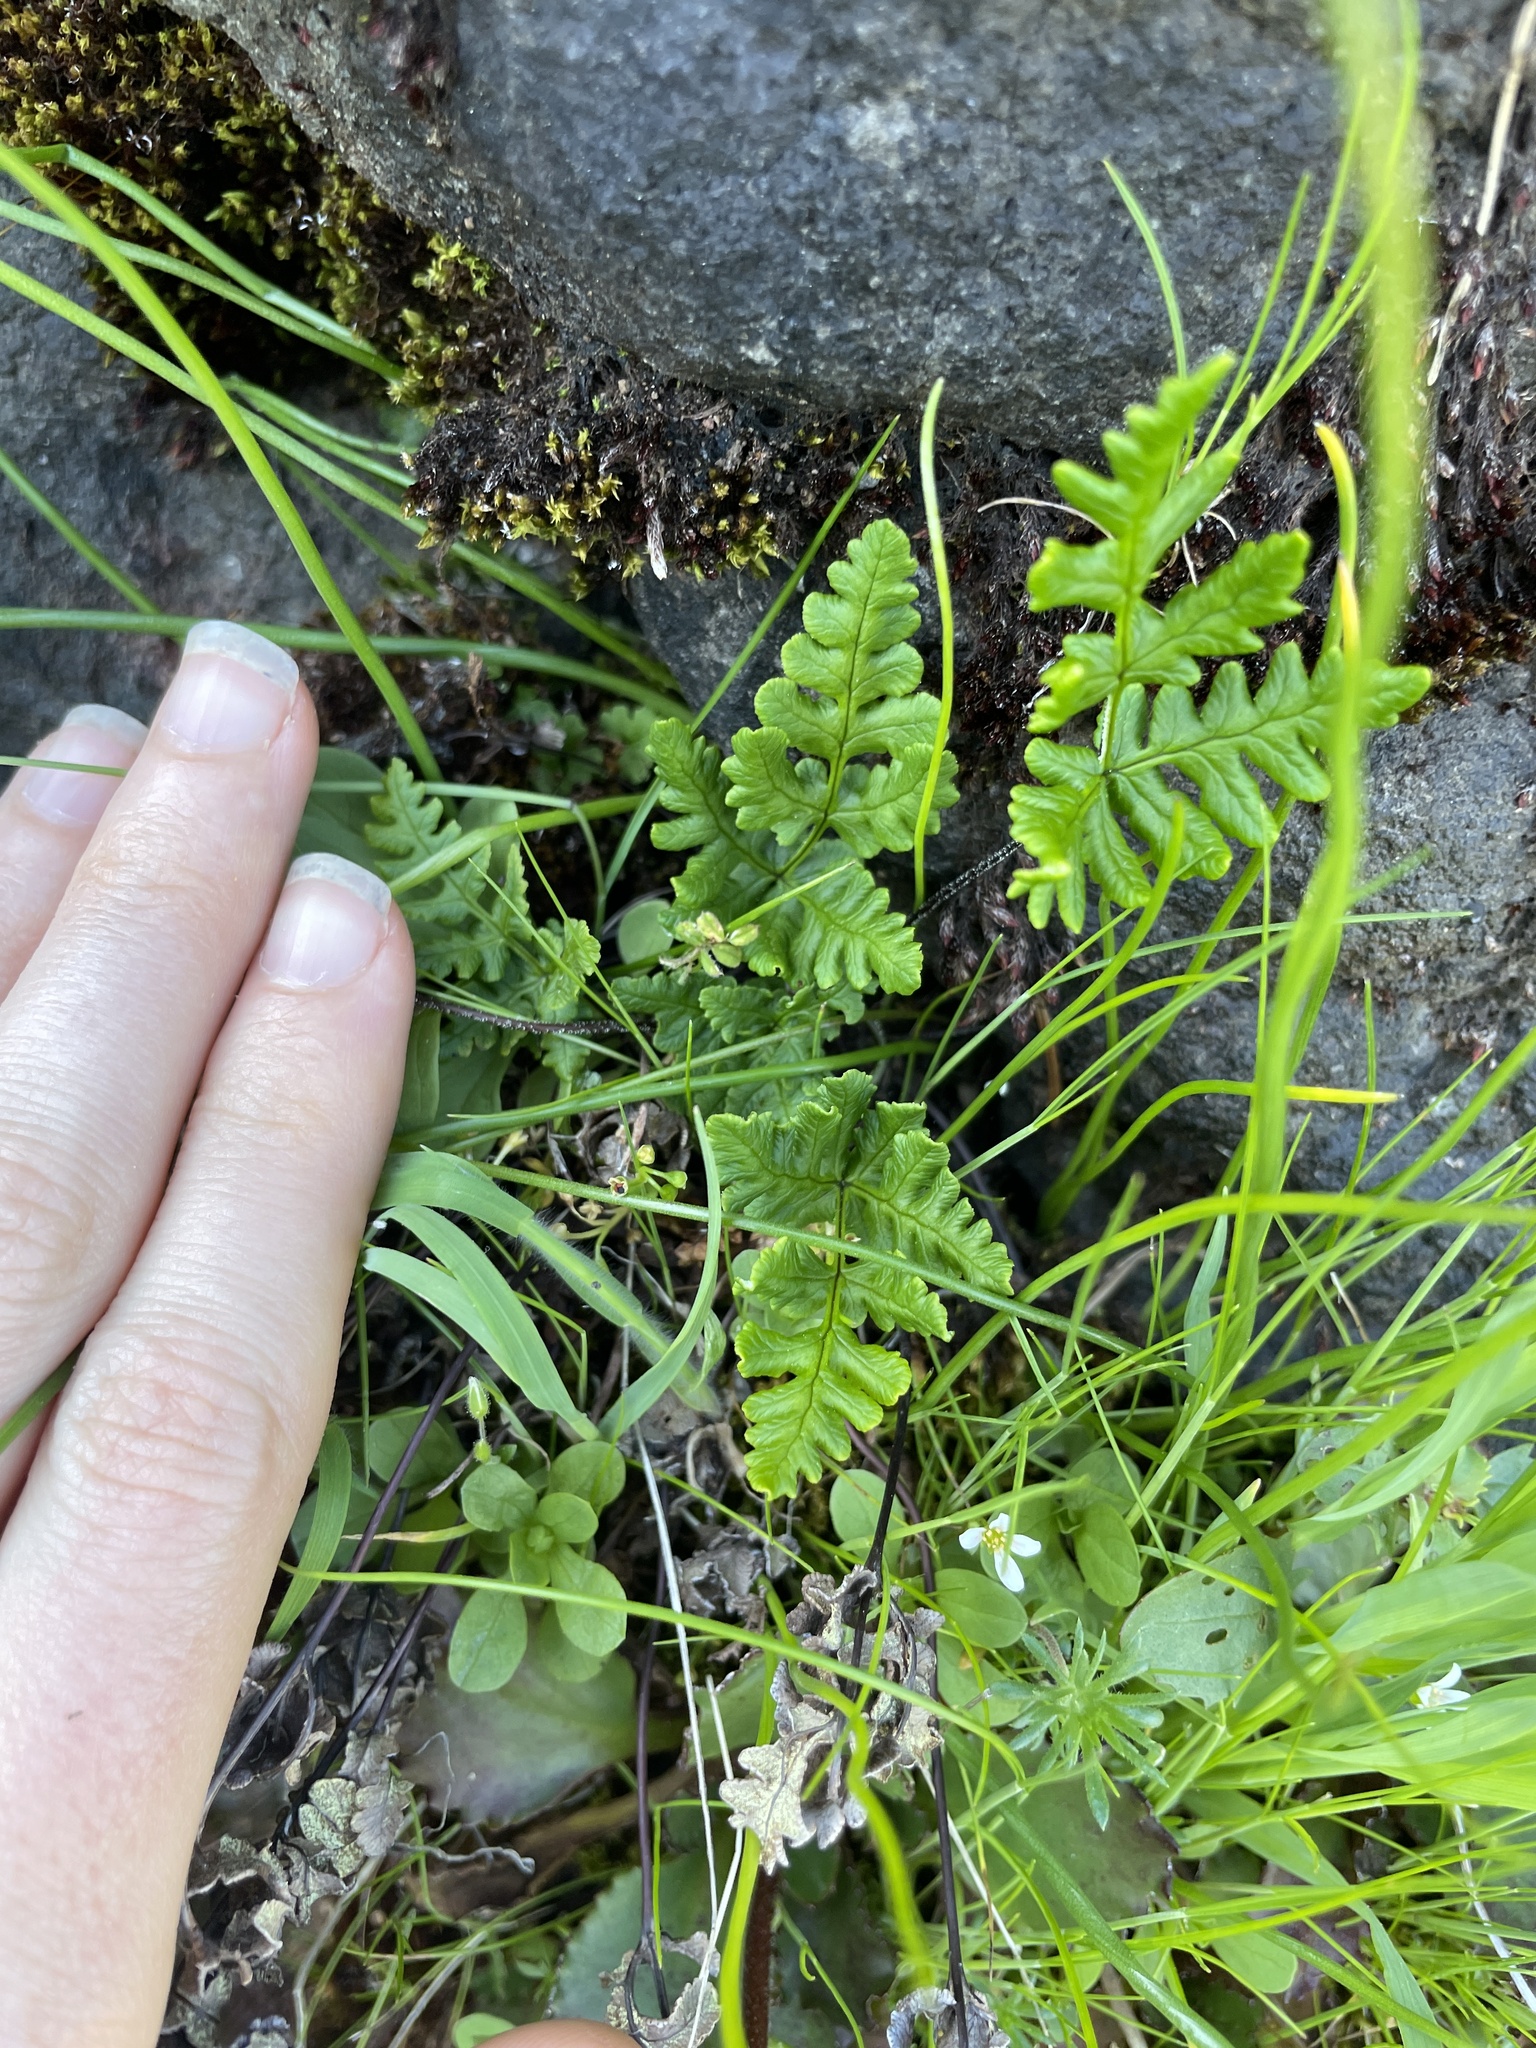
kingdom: Plantae
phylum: Tracheophyta
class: Polypodiopsida
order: Polypodiales
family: Pteridaceae
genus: Pentagramma
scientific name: Pentagramma triangularis
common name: Gold fern
